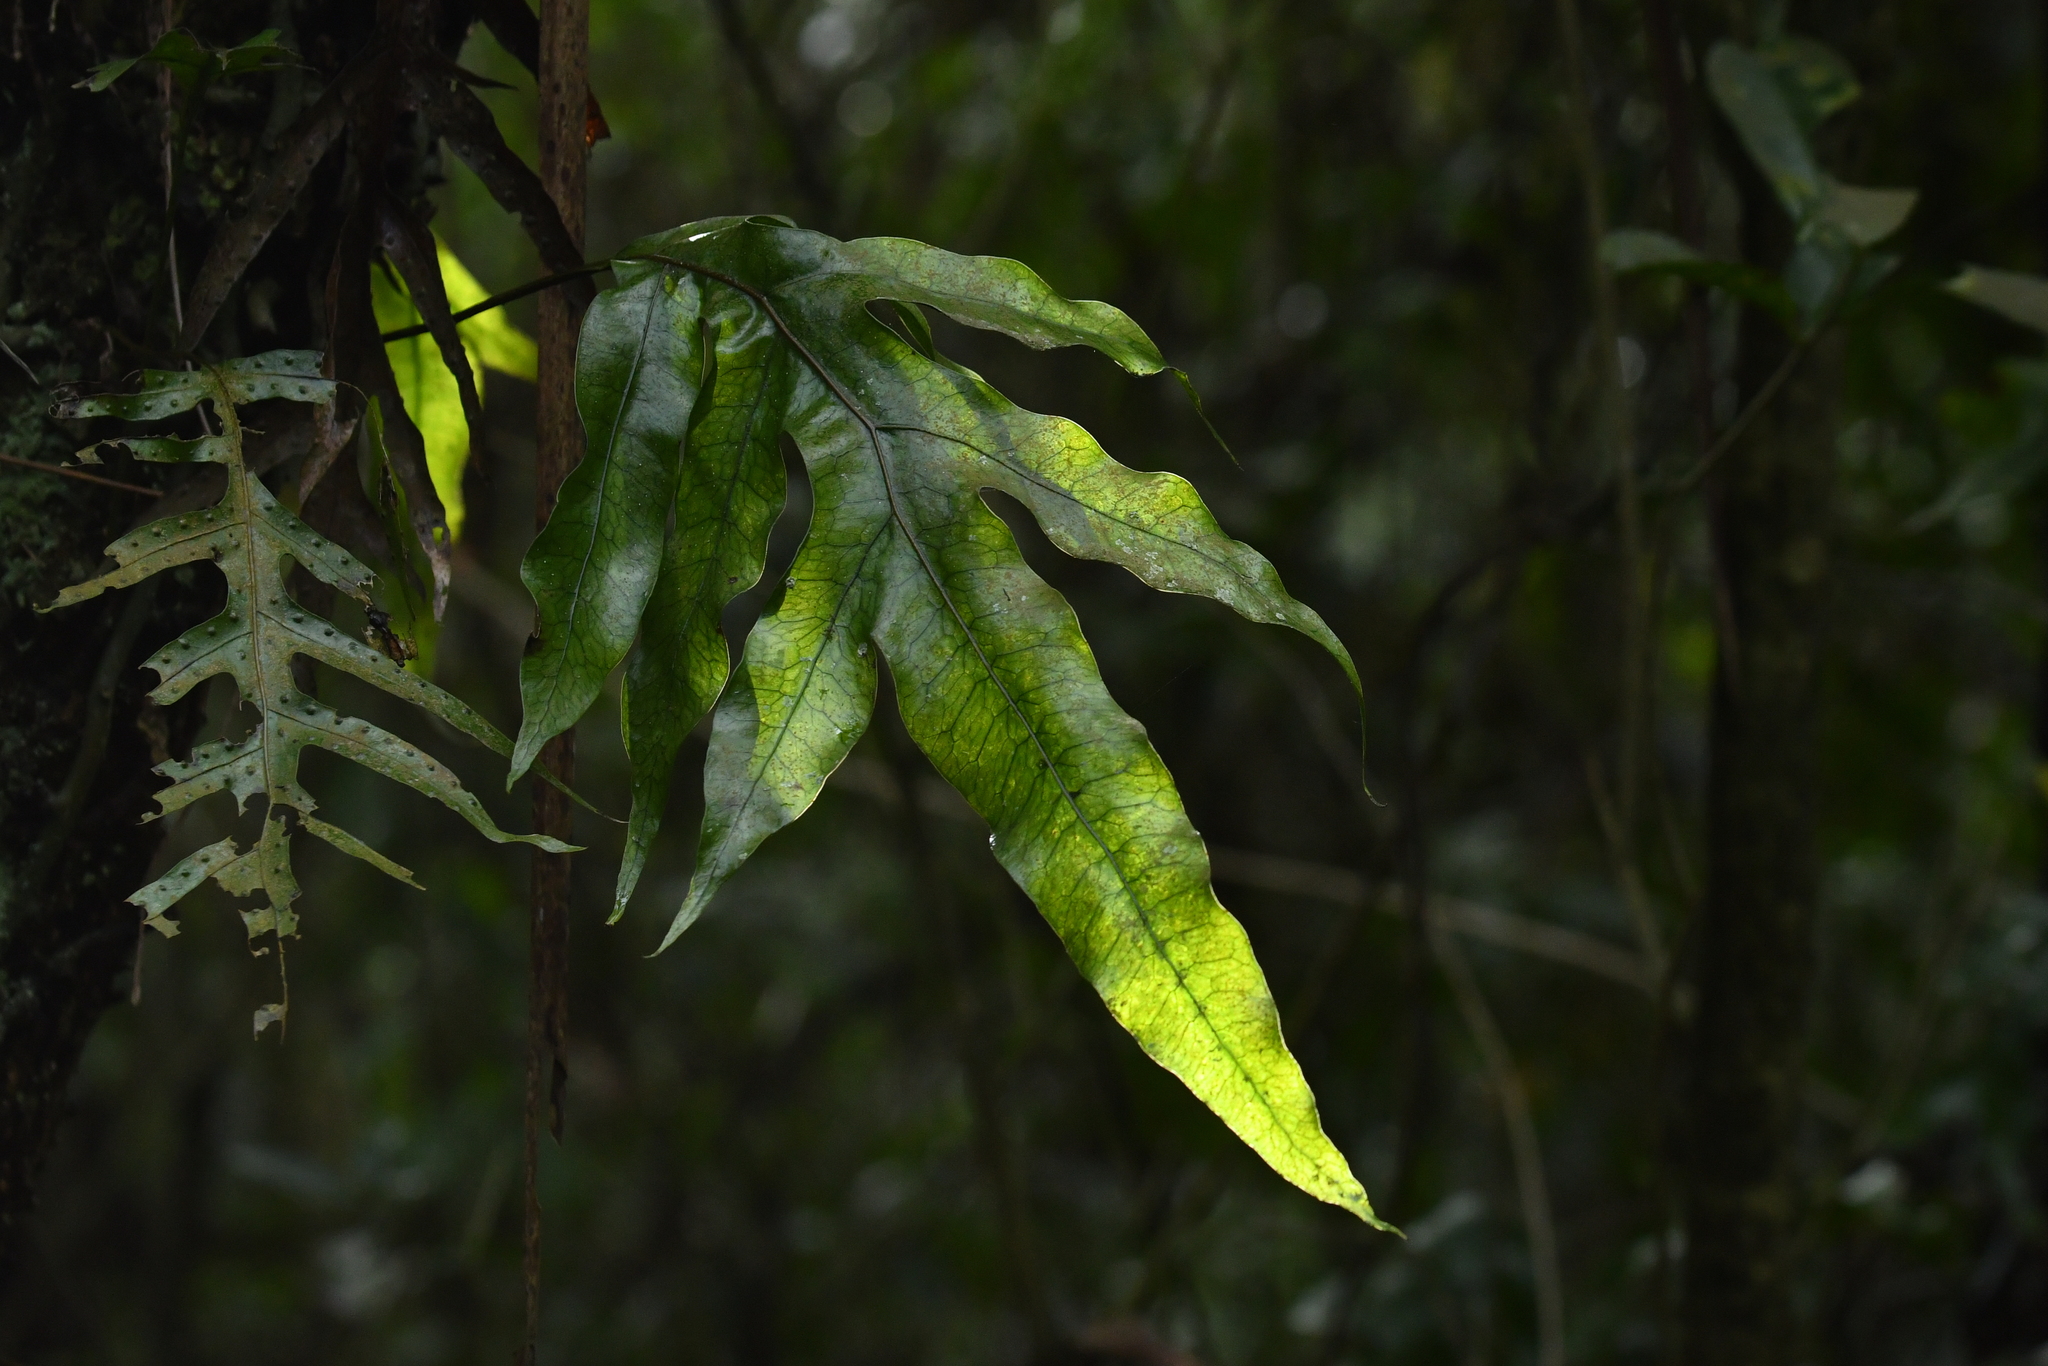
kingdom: Plantae
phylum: Tracheophyta
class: Polypodiopsida
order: Polypodiales
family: Polypodiaceae
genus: Lecanopteris
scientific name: Lecanopteris pustulata
